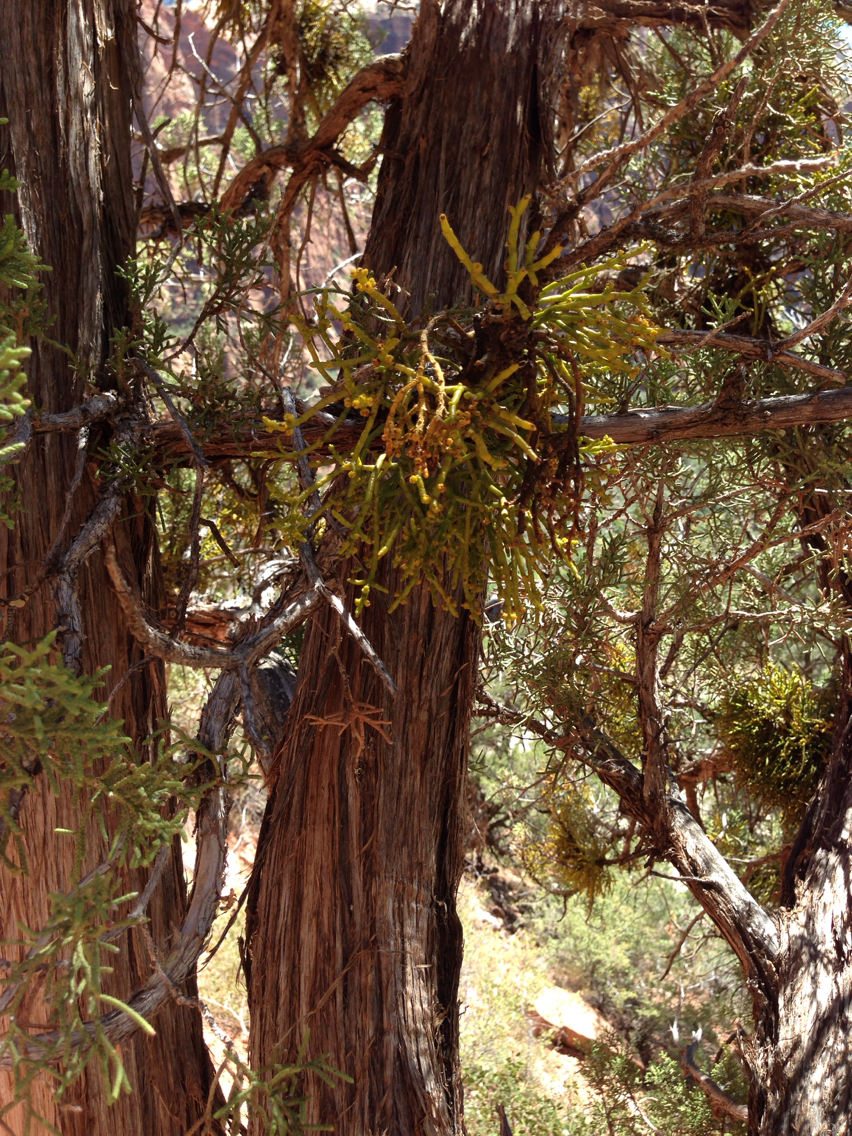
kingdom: Plantae
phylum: Tracheophyta
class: Magnoliopsida
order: Santalales
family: Viscaceae
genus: Phoradendron
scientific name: Phoradendron juniperinum
